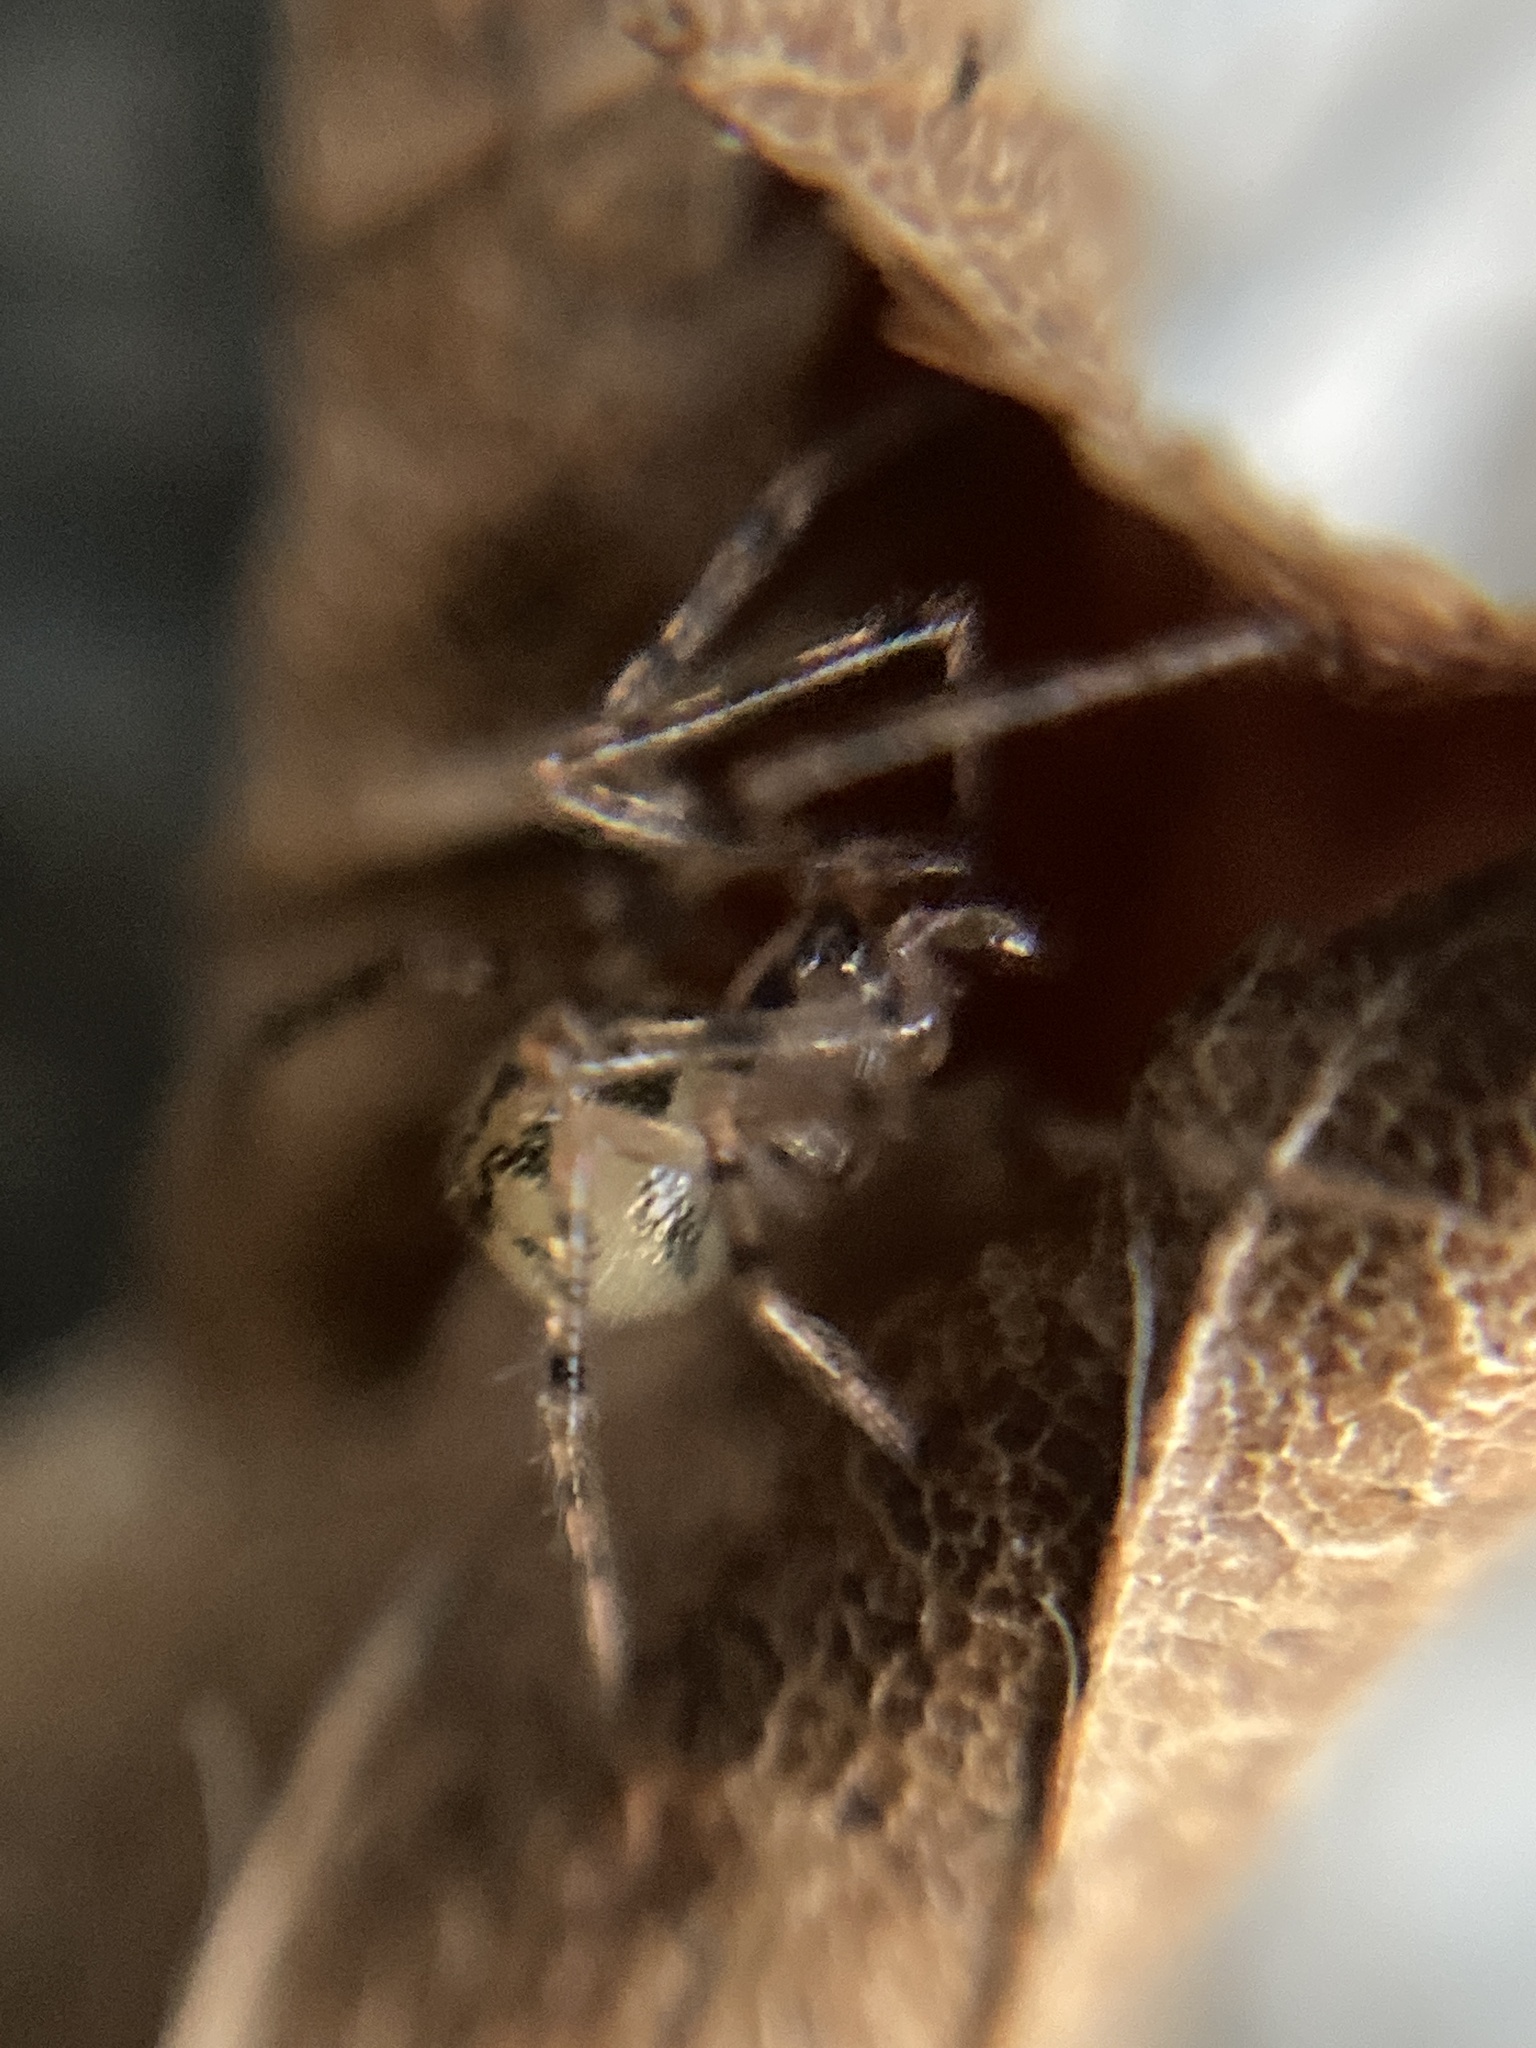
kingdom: Animalia
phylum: Arthropoda
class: Arachnida
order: Araneae
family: Nesticidae
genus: Nesticus
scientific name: Nesticus cellulanus
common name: Comb-footed cellar spider
